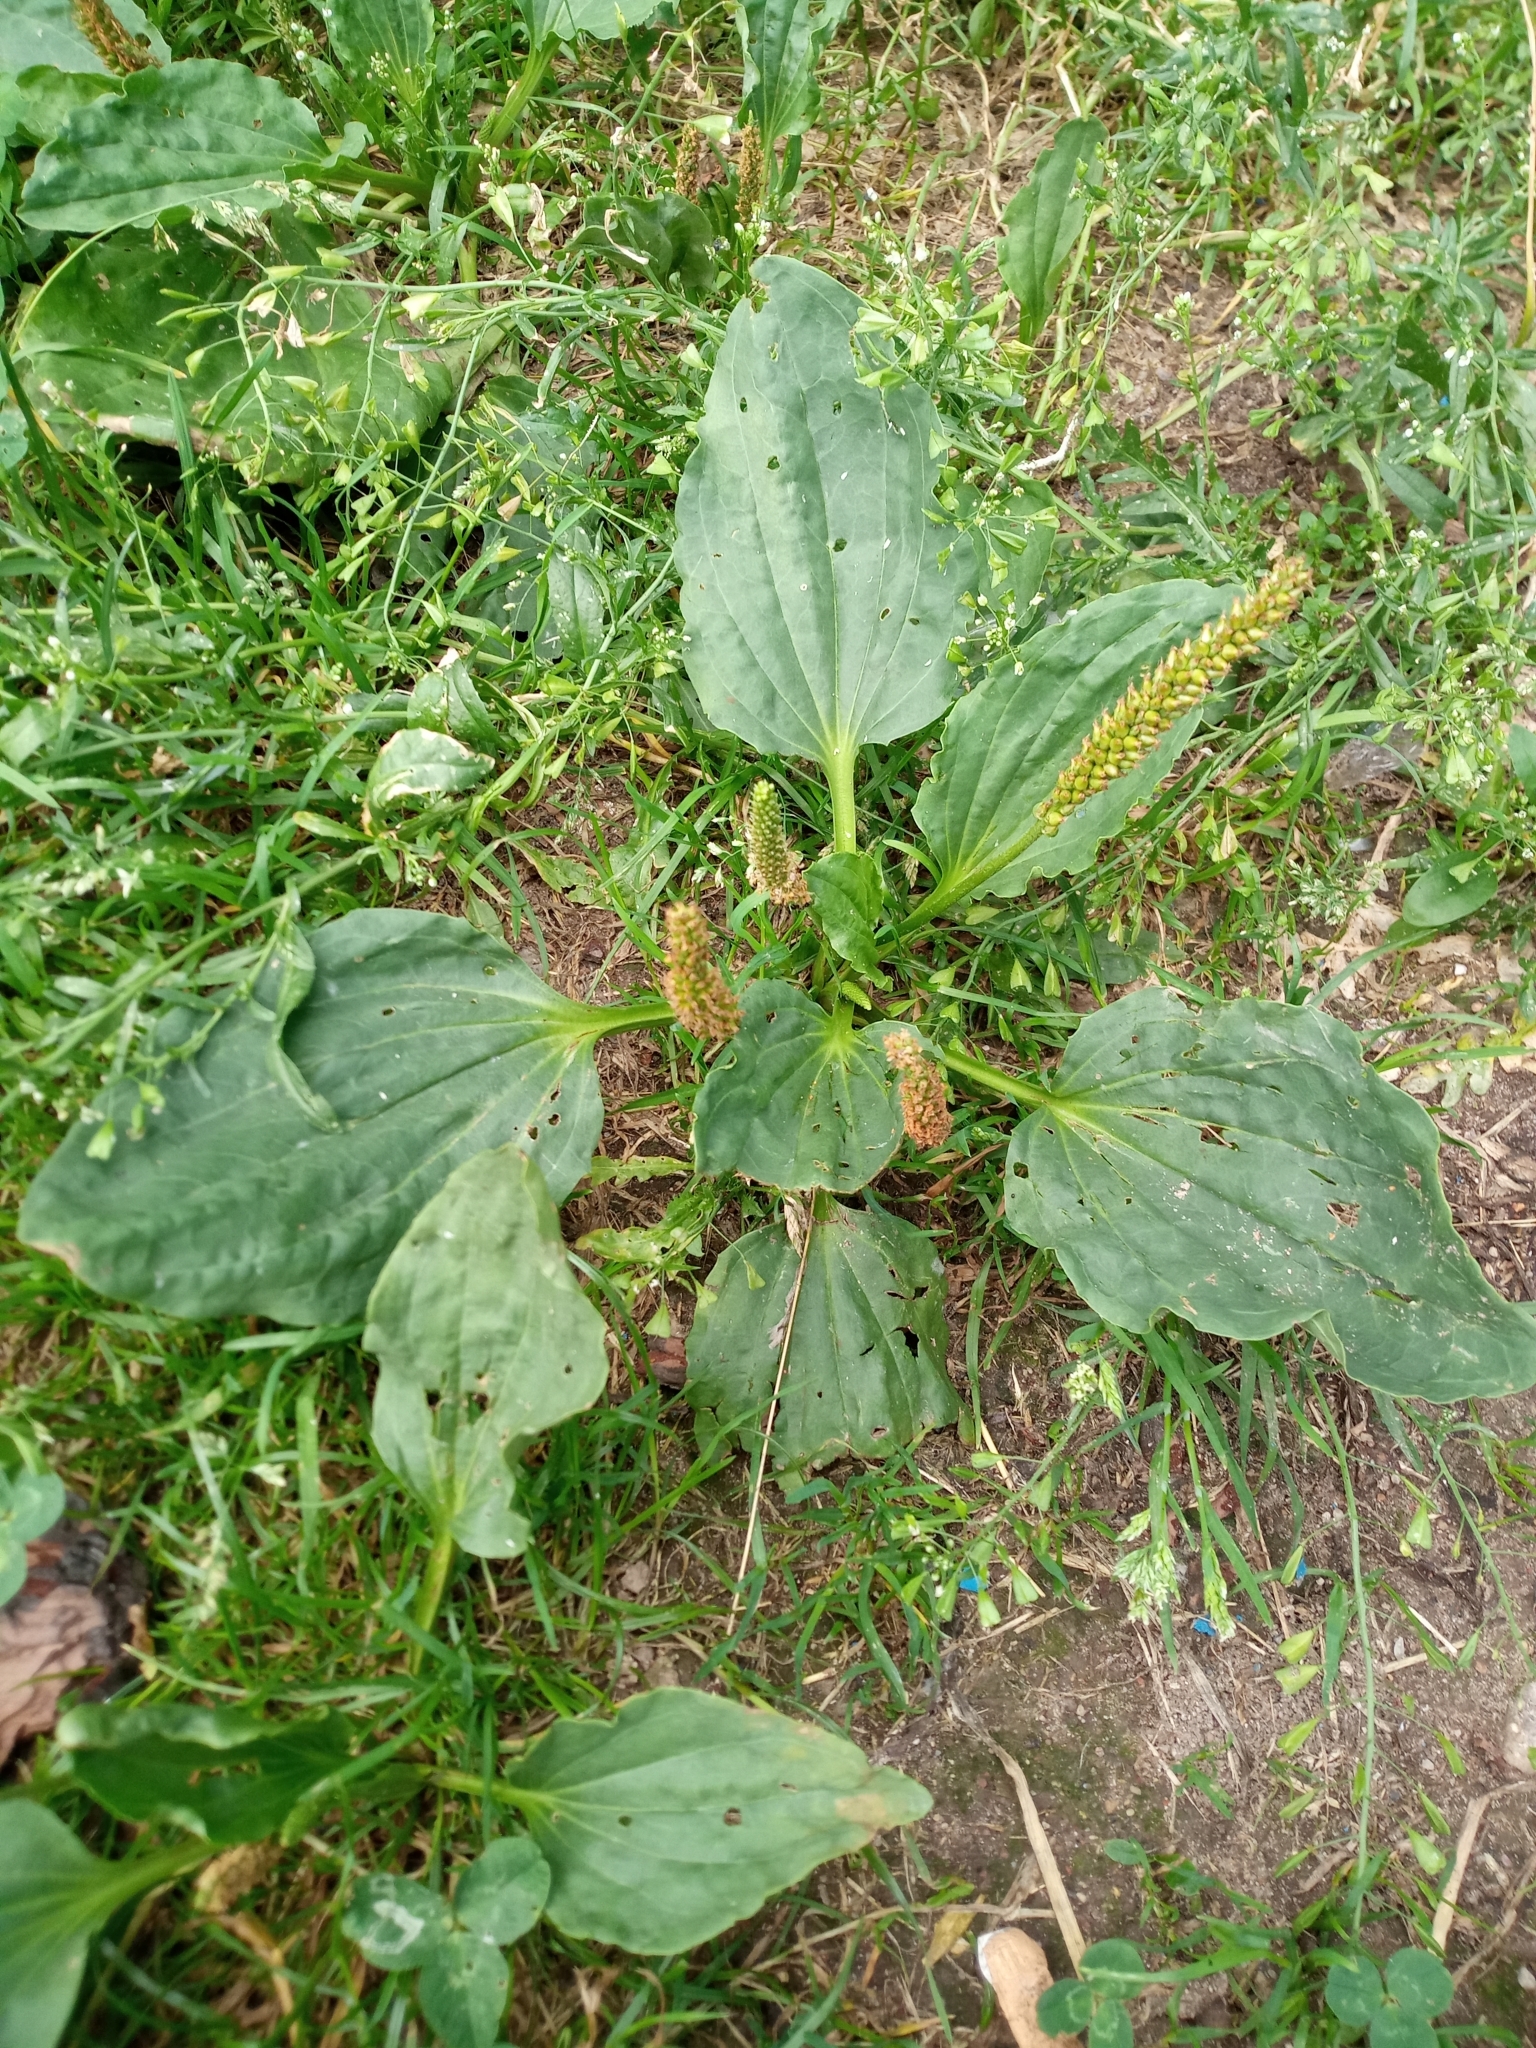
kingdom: Plantae
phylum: Tracheophyta
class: Magnoliopsida
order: Lamiales
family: Plantaginaceae
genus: Plantago
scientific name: Plantago major
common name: Common plantain
